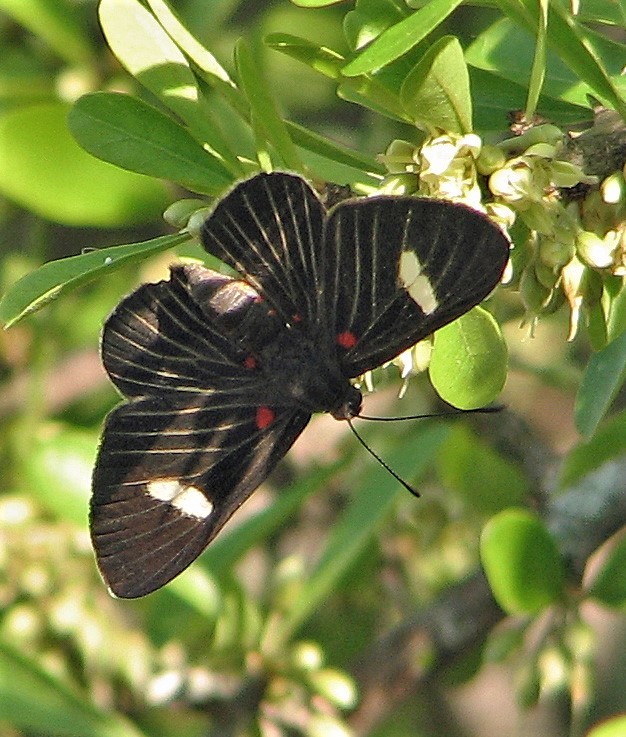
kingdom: Animalia
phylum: Arthropoda
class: Insecta
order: Lepidoptera
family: Lycaenidae
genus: Melanis
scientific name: Melanis aegates
